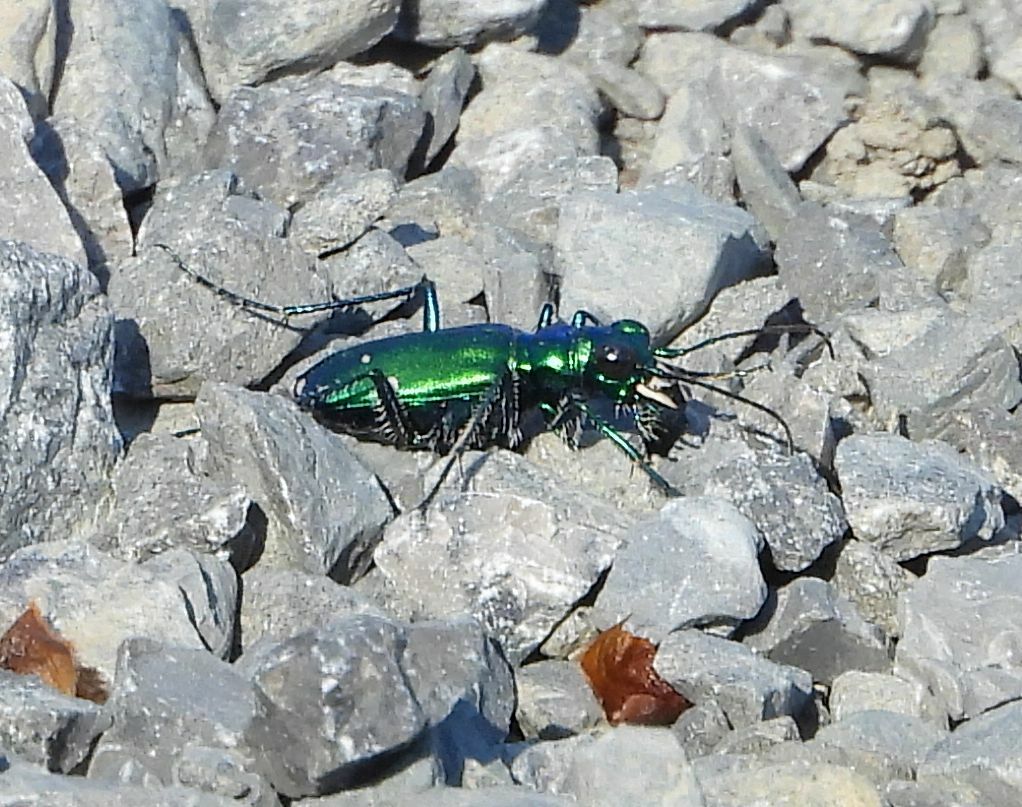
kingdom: Animalia
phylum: Arthropoda
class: Insecta
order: Coleoptera
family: Carabidae
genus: Cicindela
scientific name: Cicindela sexguttata
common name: Six-spotted tiger beetle
